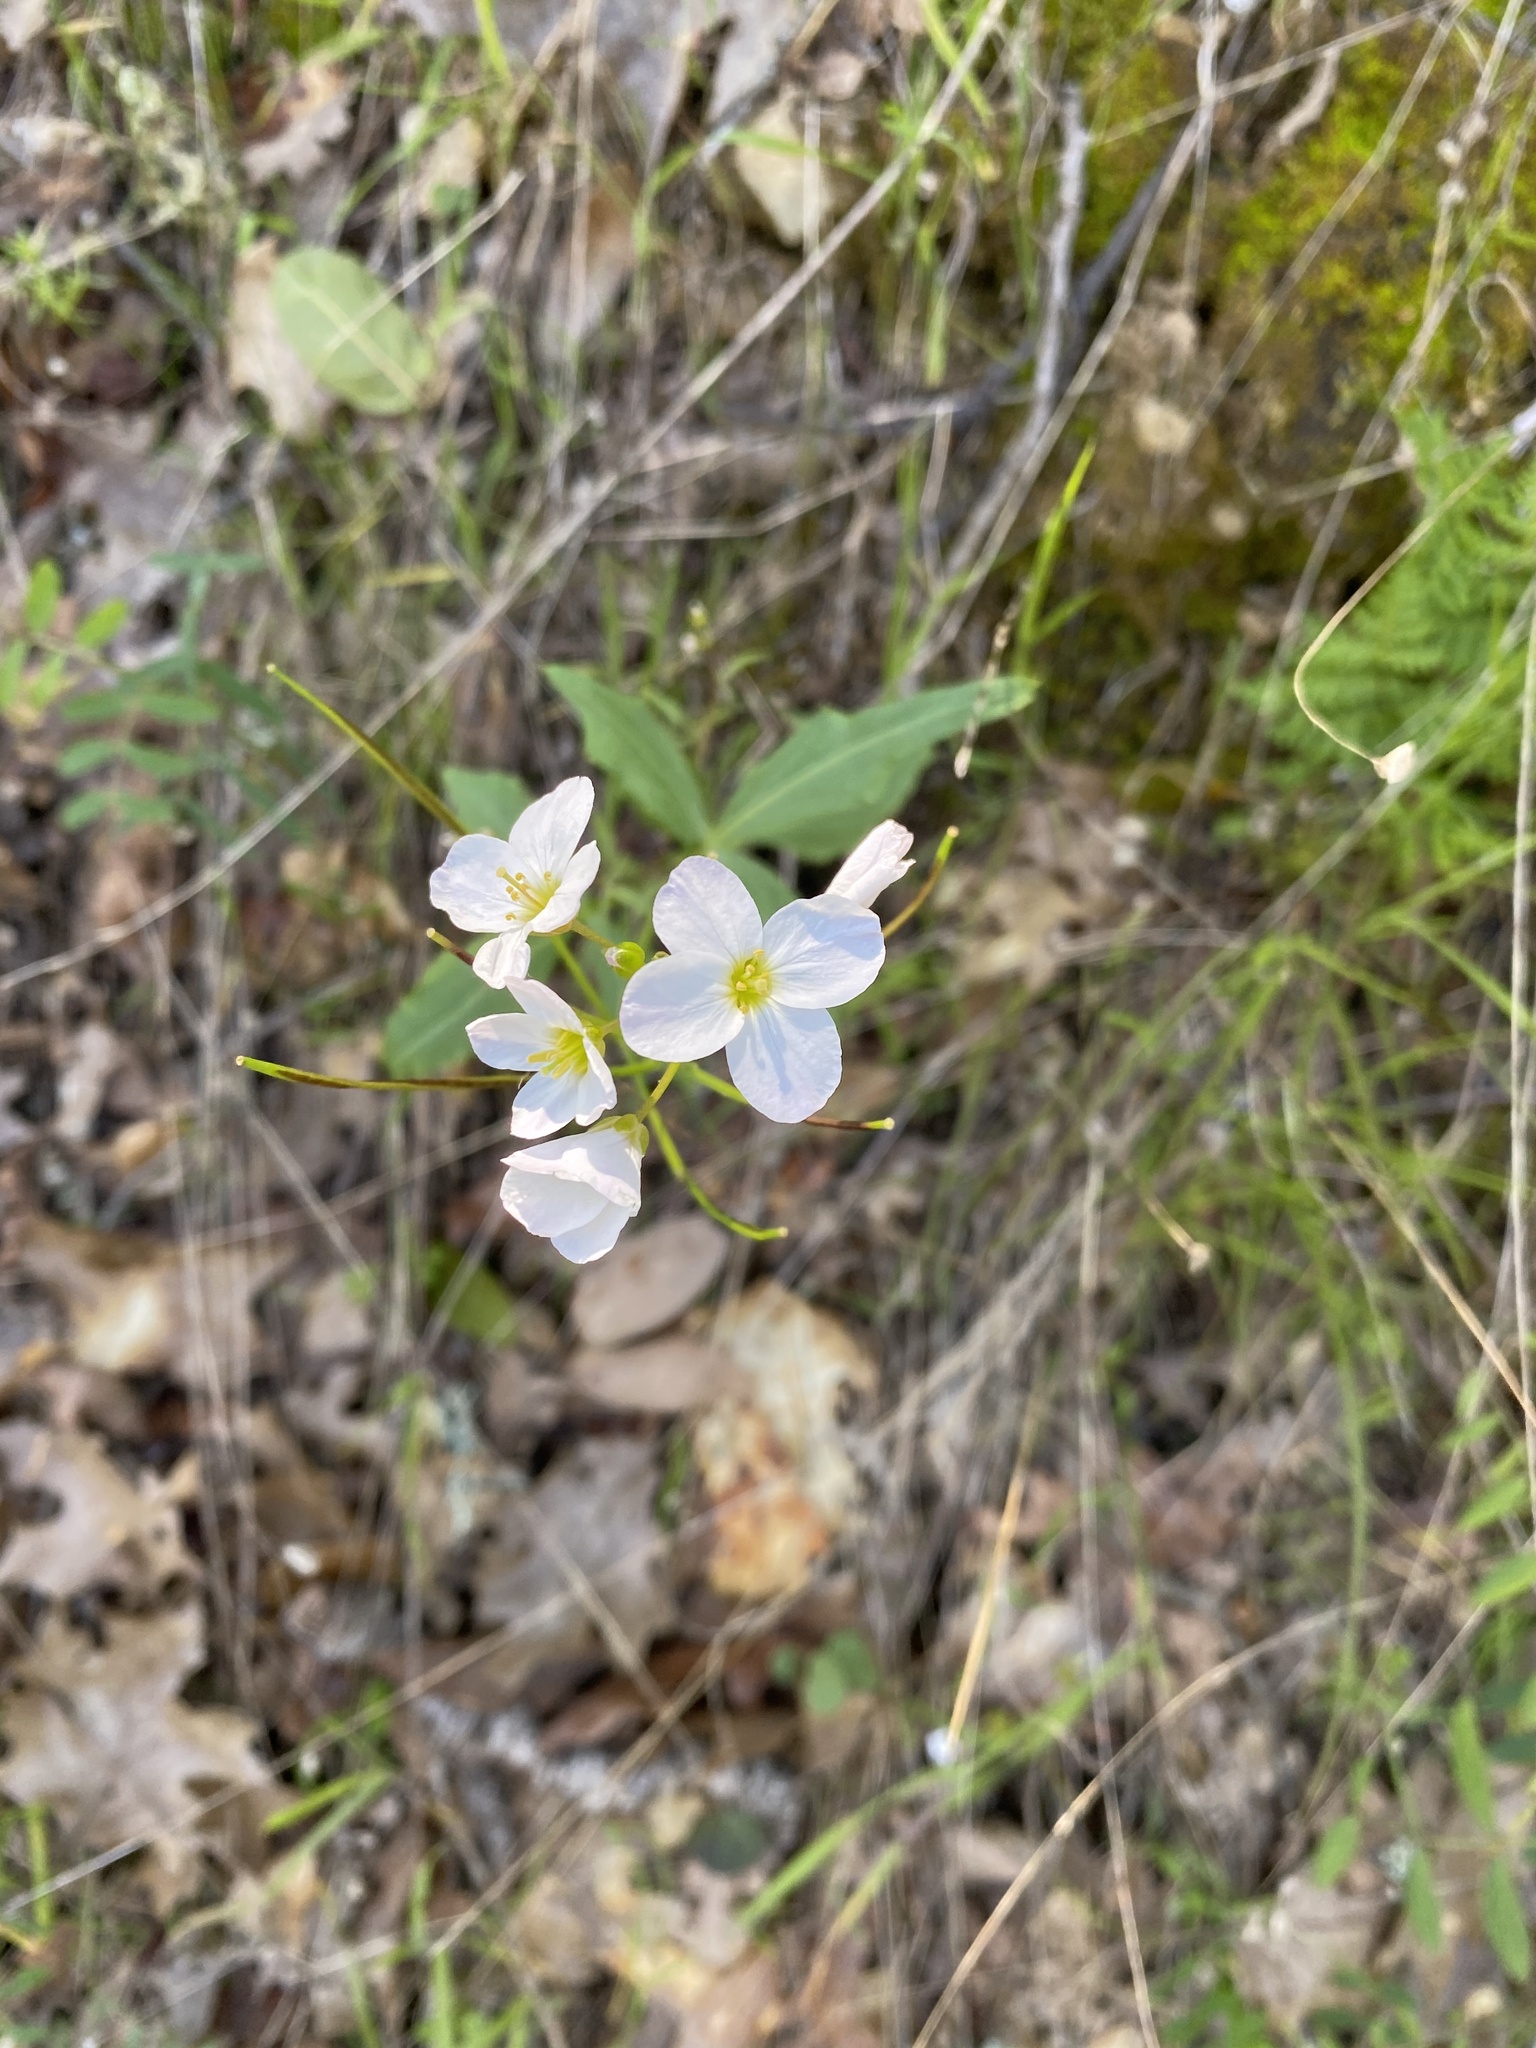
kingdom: Plantae
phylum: Tracheophyta
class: Magnoliopsida
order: Brassicales
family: Brassicaceae
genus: Cardamine
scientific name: Cardamine californica
